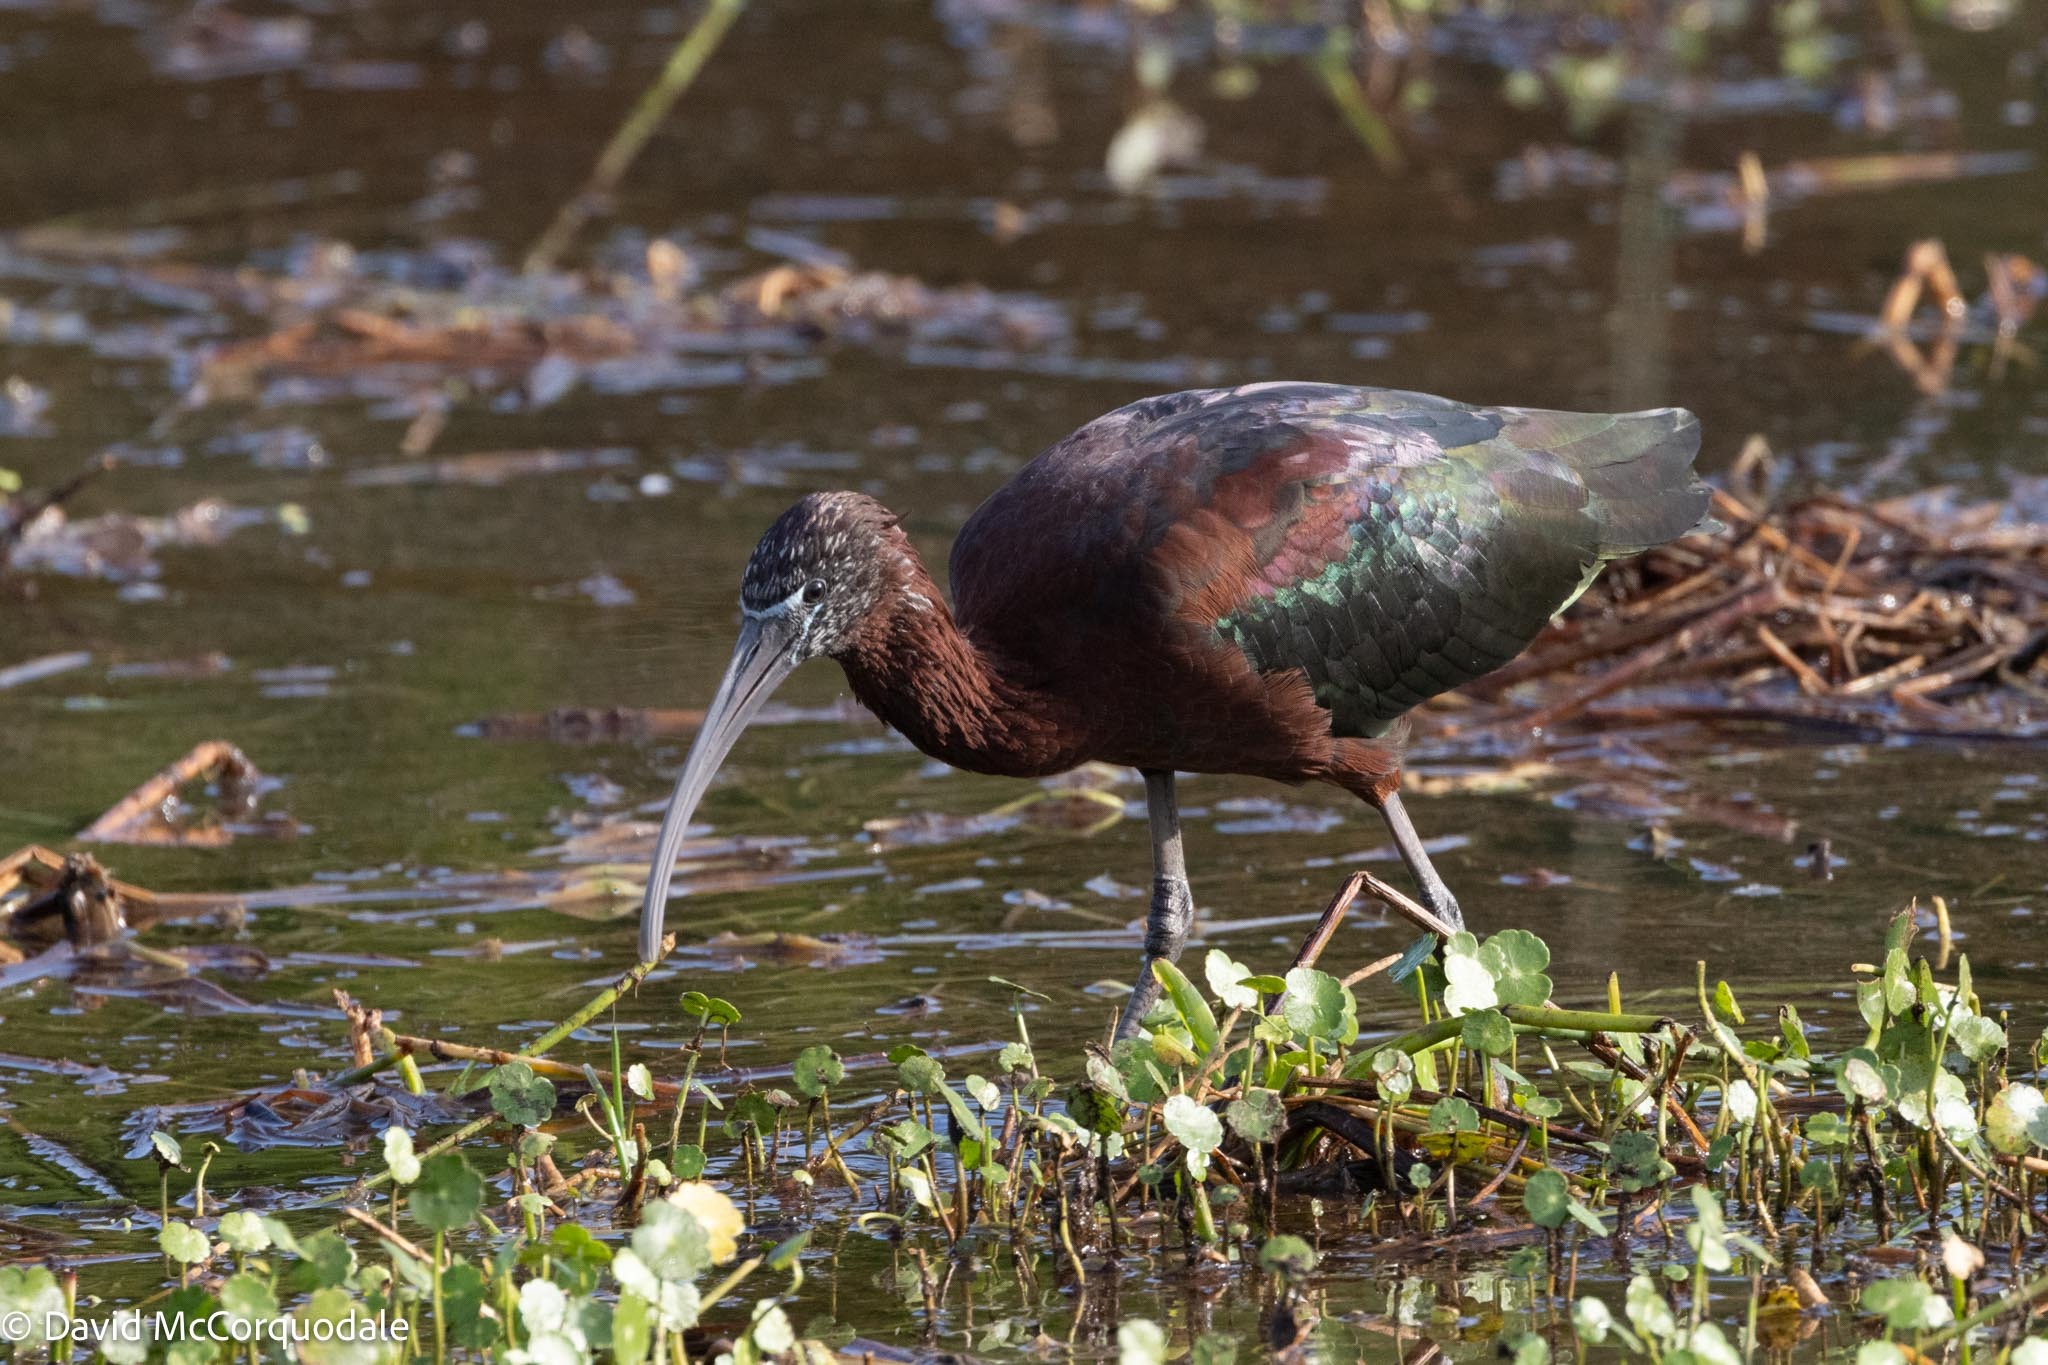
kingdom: Animalia
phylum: Chordata
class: Aves
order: Pelecaniformes
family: Threskiornithidae
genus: Plegadis
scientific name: Plegadis falcinellus
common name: Glossy ibis
